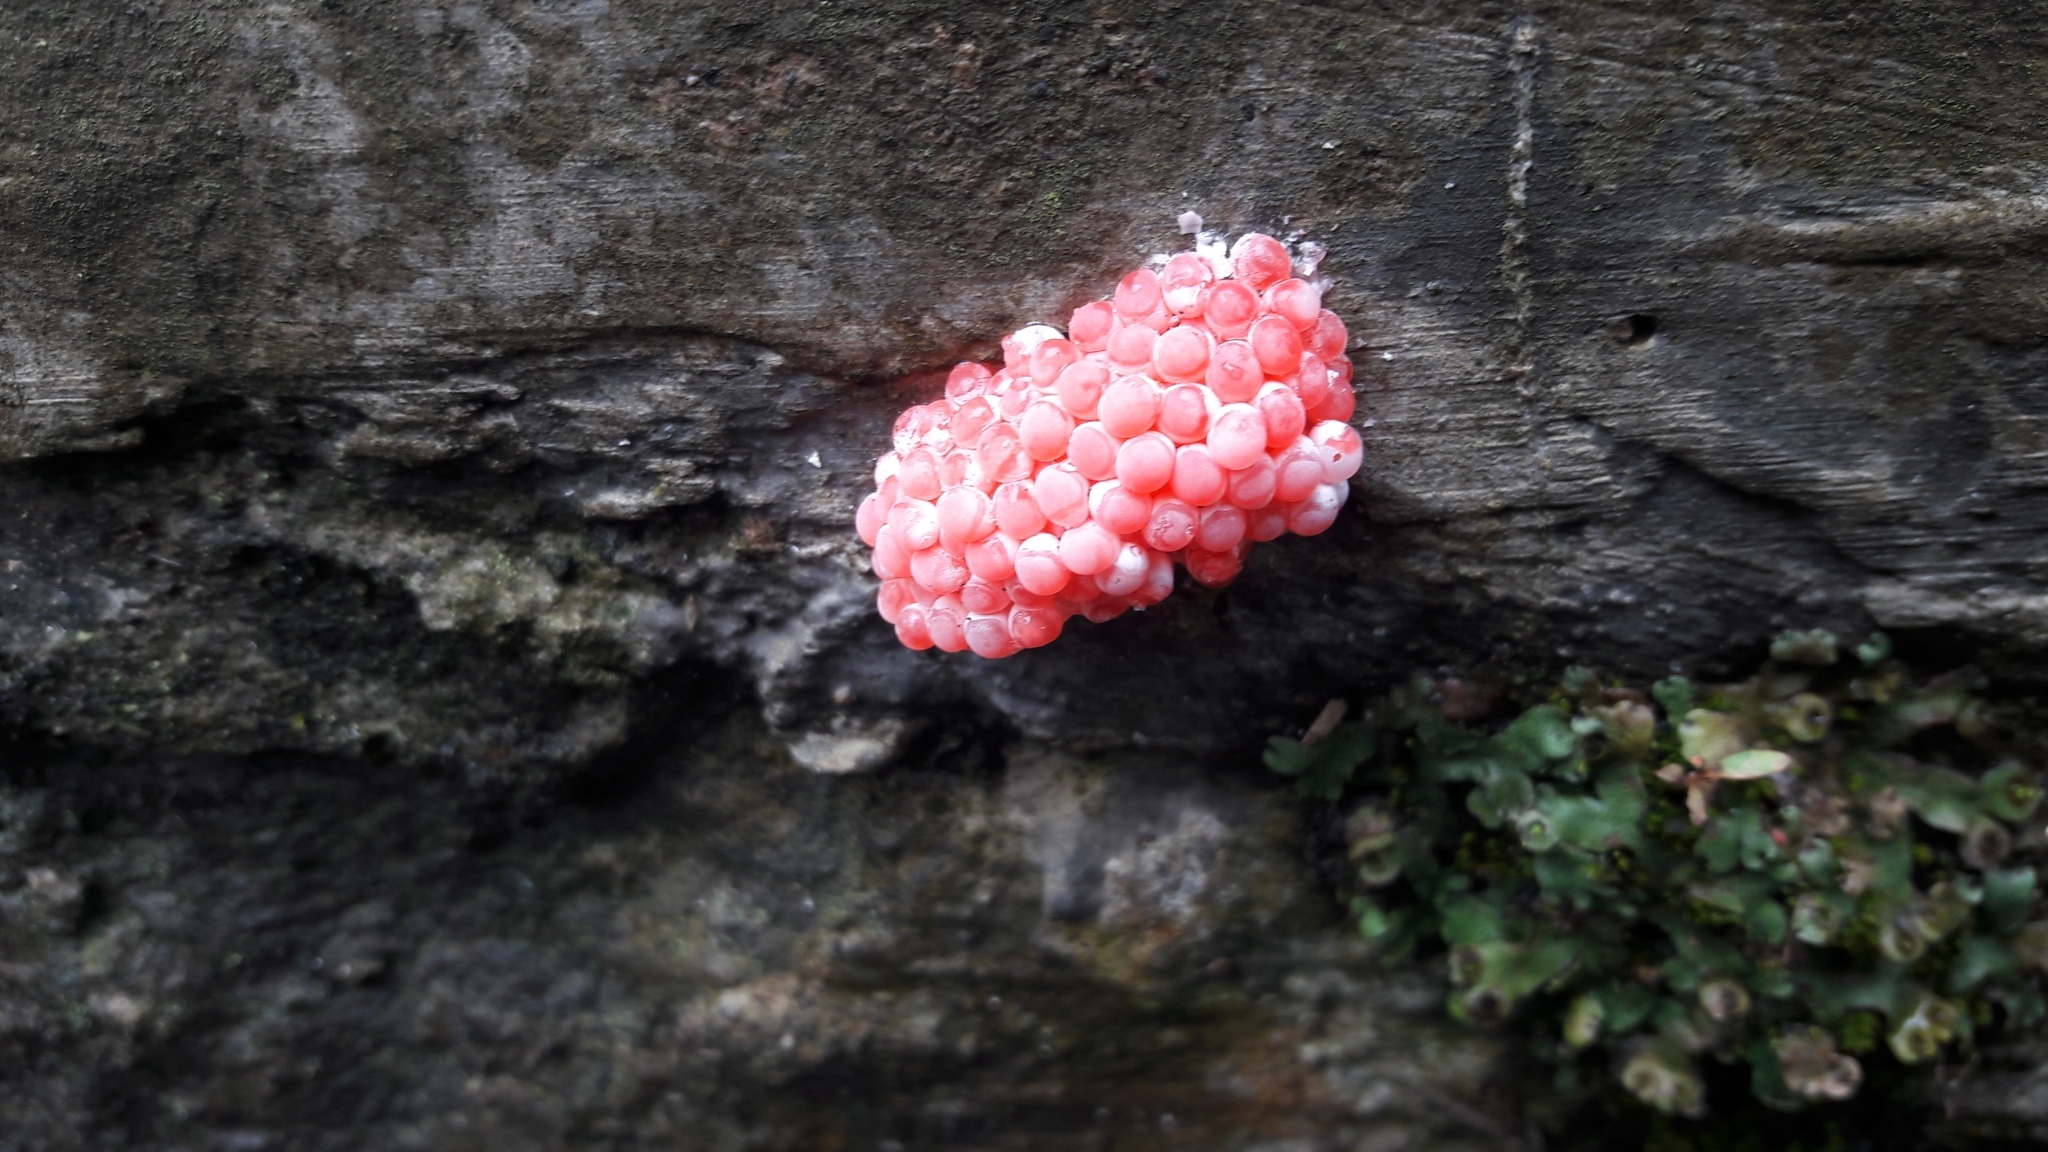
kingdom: Animalia
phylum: Mollusca
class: Gastropoda
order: Architaenioglossa
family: Ampullariidae
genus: Pomacea
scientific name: Pomacea canaliculata
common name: Channeled applesnail
